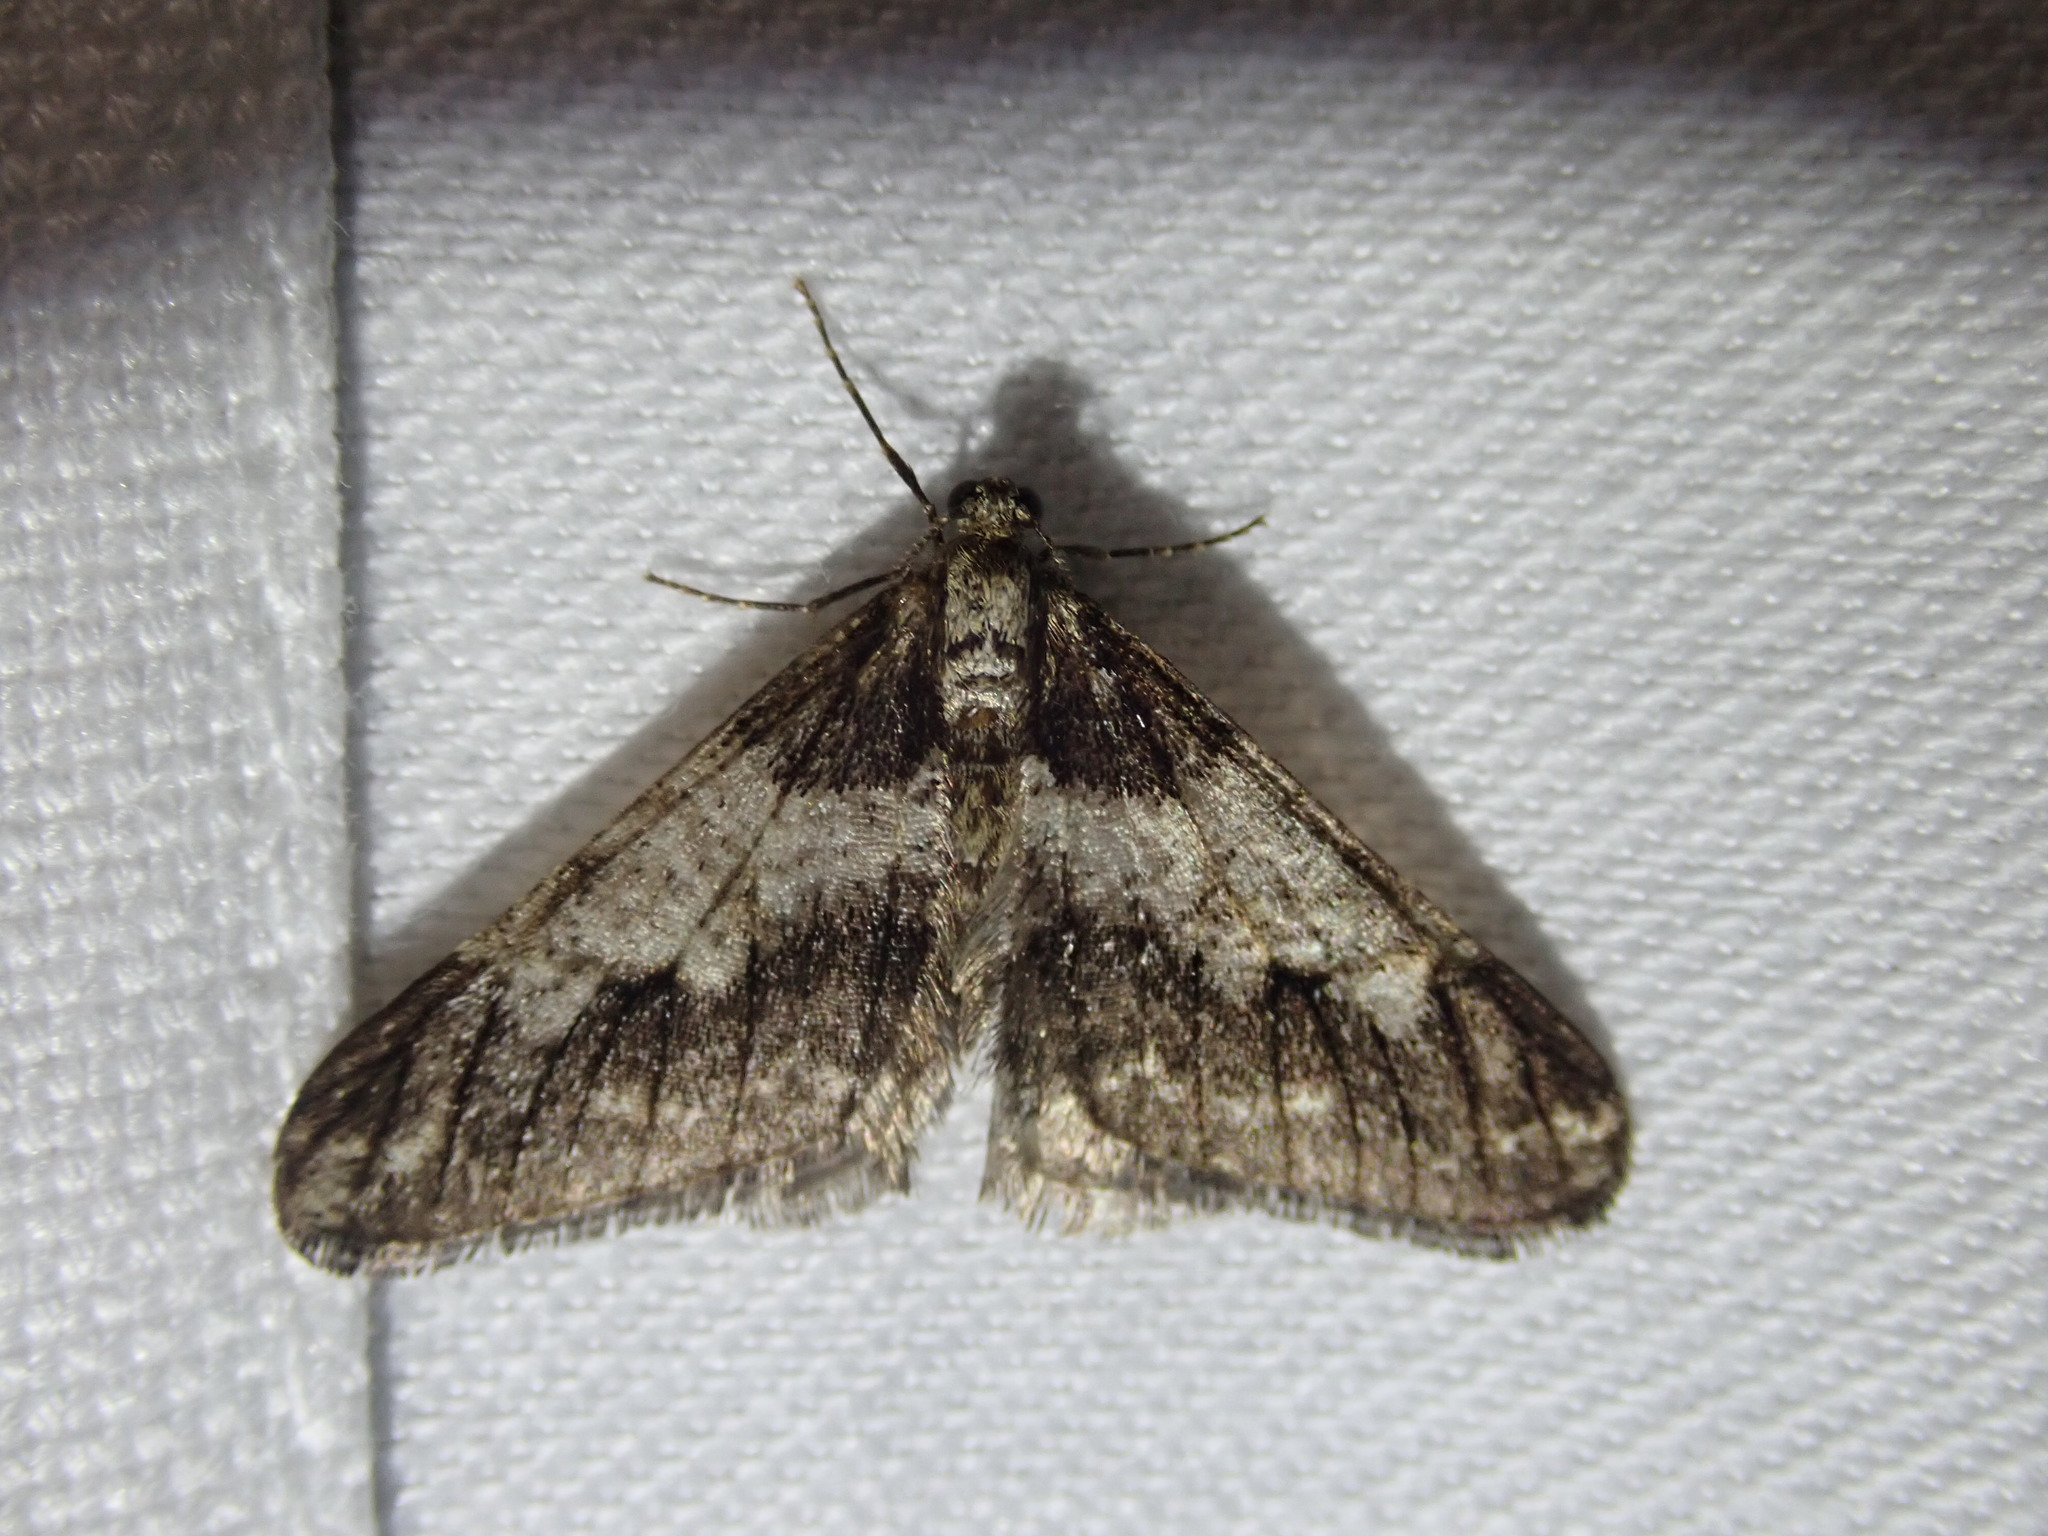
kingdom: Animalia
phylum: Arthropoda
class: Insecta
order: Lepidoptera
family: Geometridae
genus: Agriopis
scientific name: Agriopis leucophaearia
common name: Spring usher
